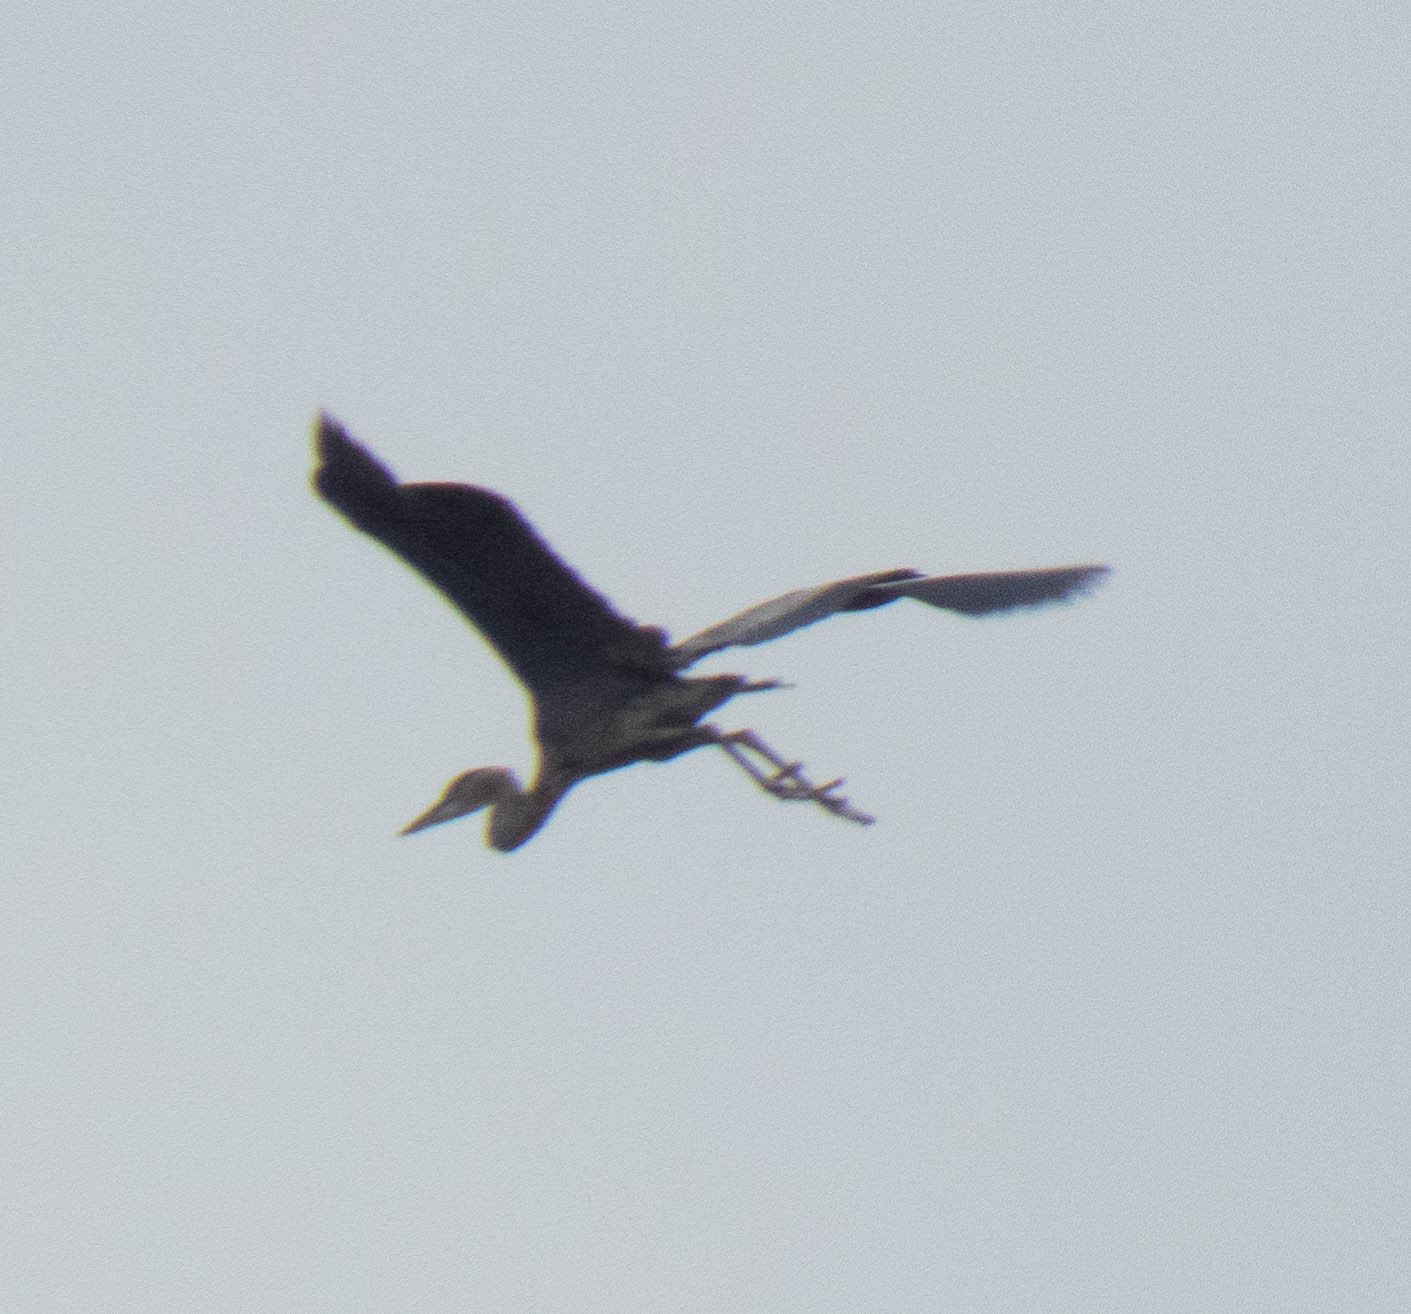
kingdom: Animalia
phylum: Chordata
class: Aves
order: Pelecaniformes
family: Ardeidae
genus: Ardea
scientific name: Ardea herodias
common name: Great blue heron
